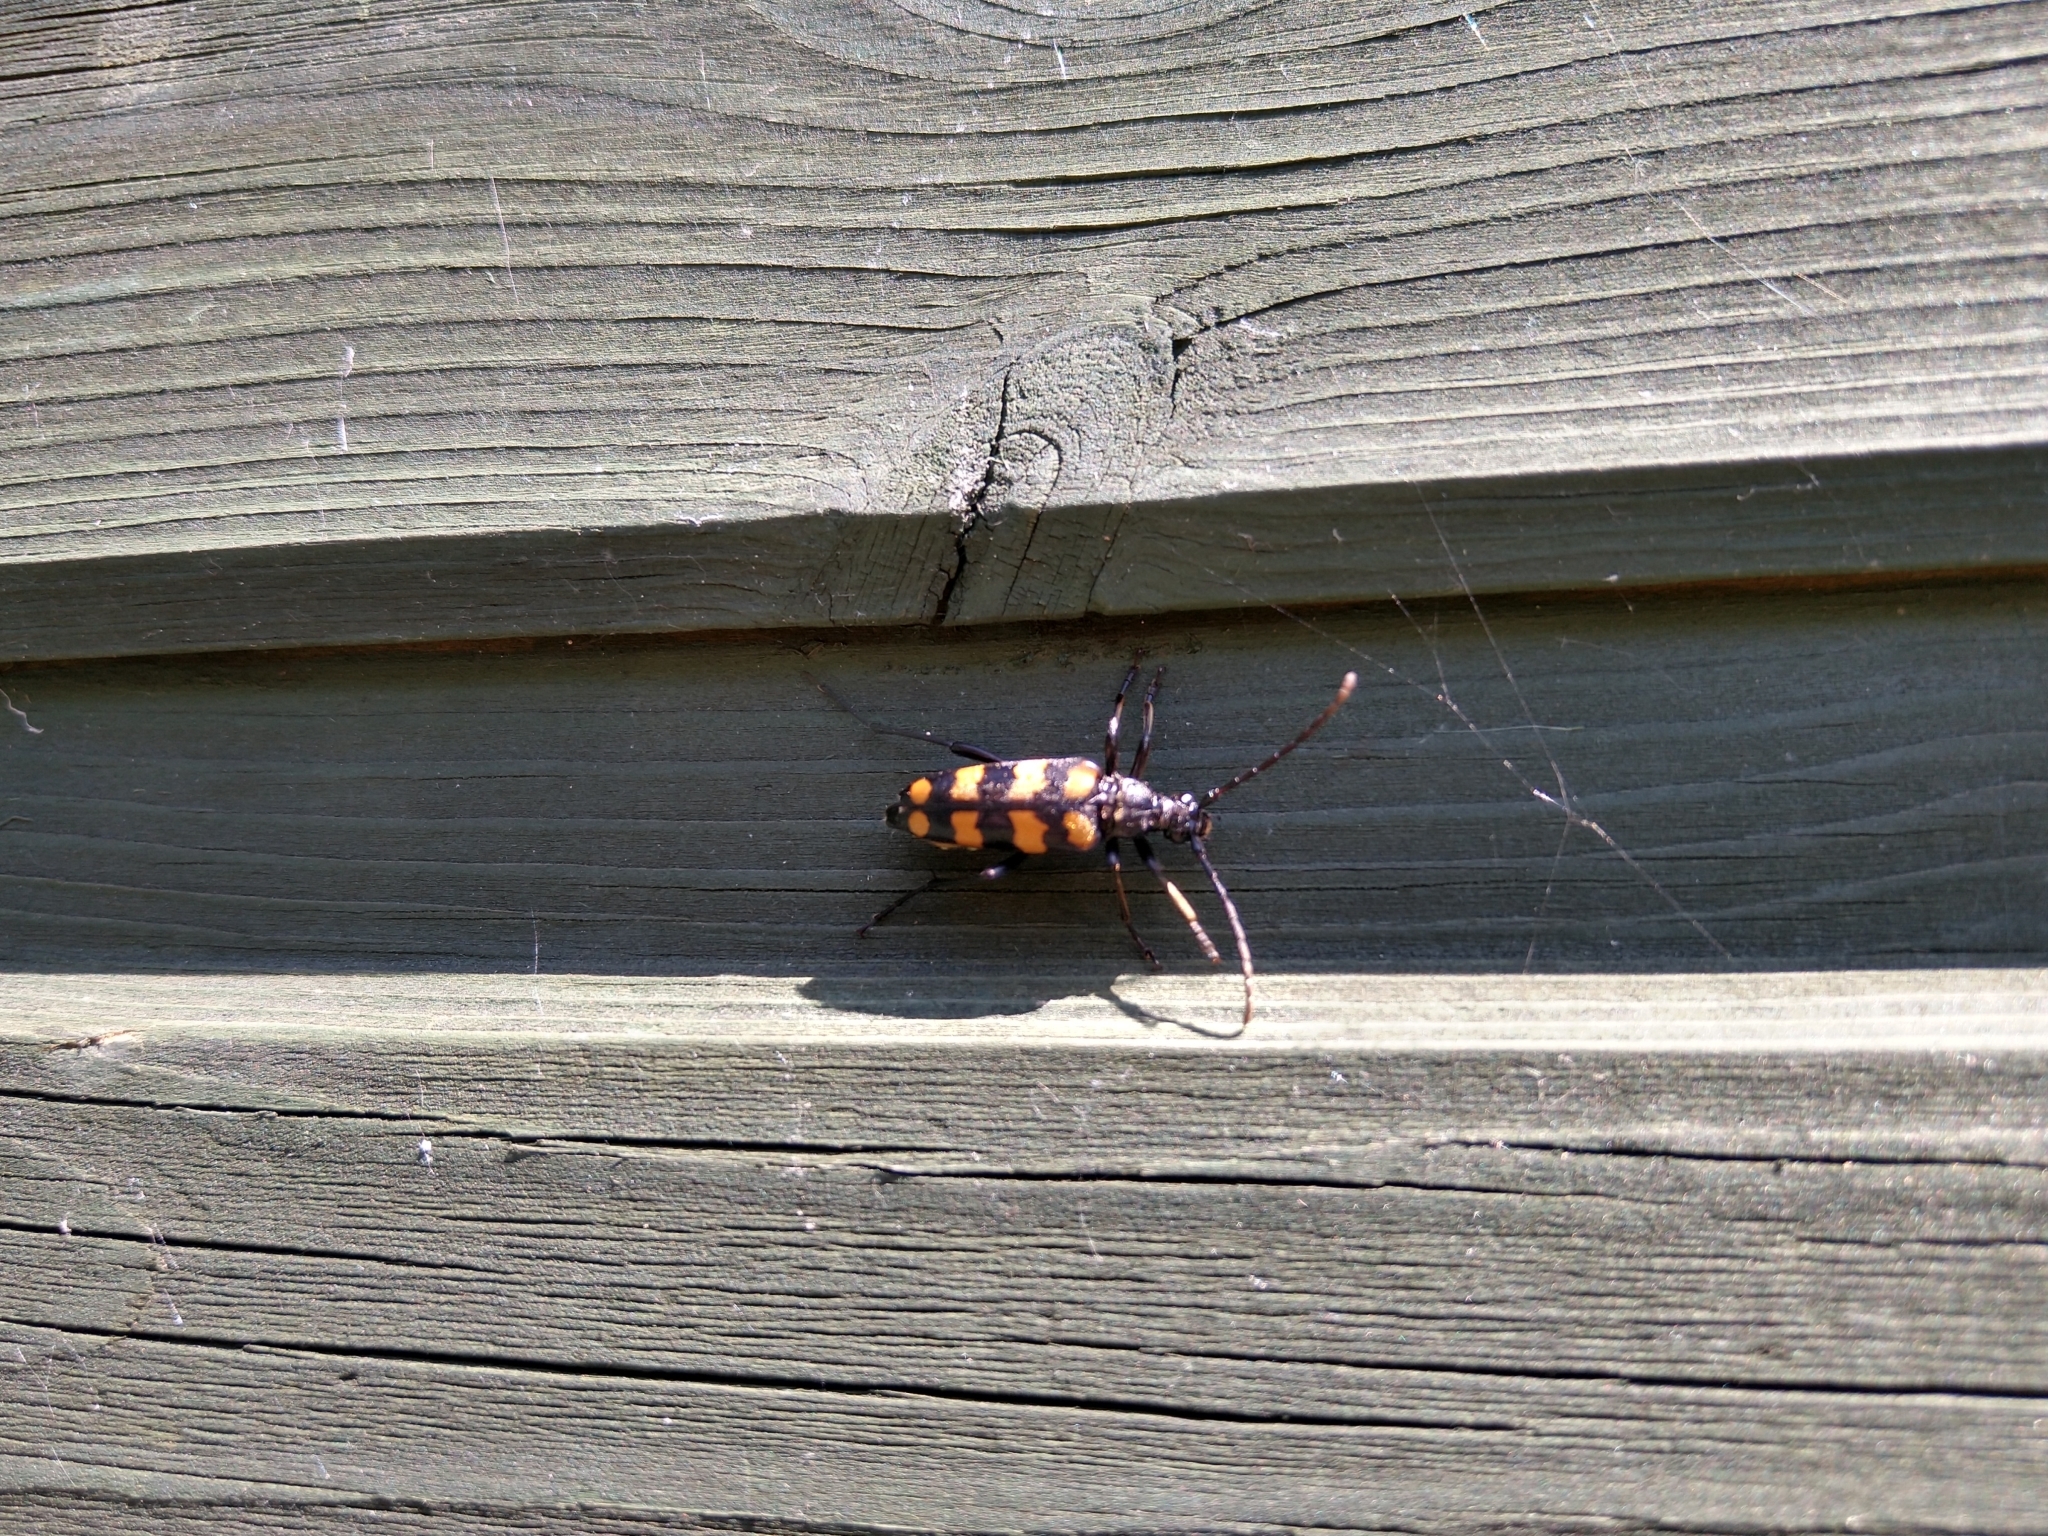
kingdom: Animalia
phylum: Arthropoda
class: Insecta
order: Coleoptera
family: Cerambycidae
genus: Leptura
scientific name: Leptura quadrifasciata
